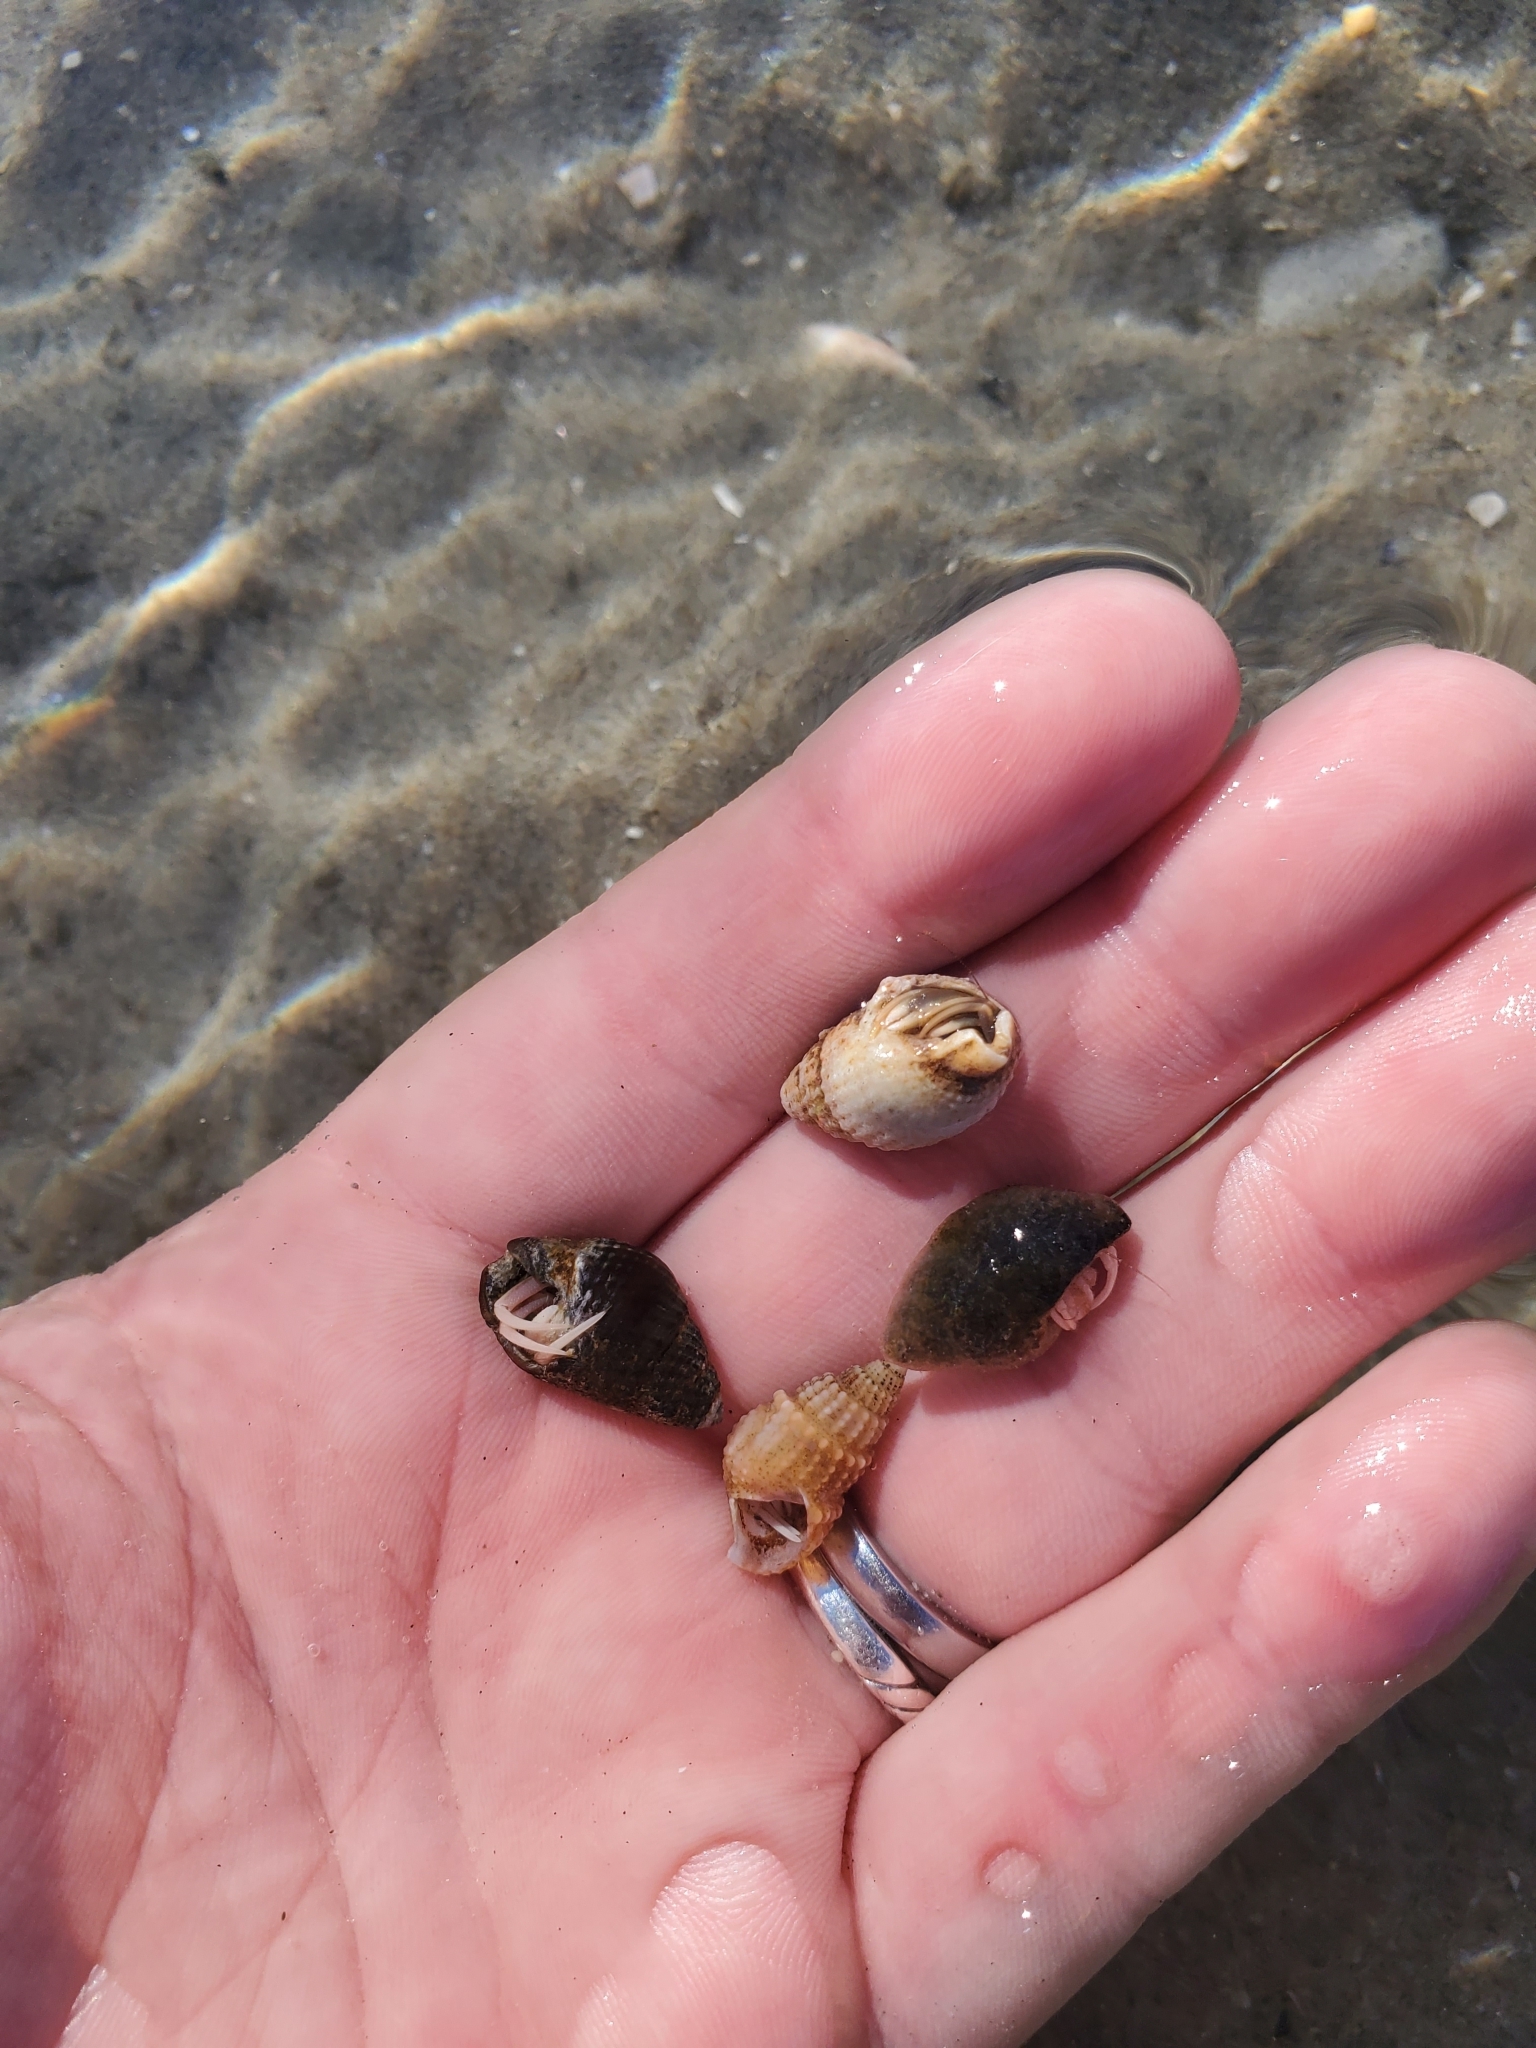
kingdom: Animalia
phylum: Arthropoda
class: Malacostraca
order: Decapoda
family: Paguridae
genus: Pagurus
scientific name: Pagurus longicarpus
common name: Long-armed hermit crab
